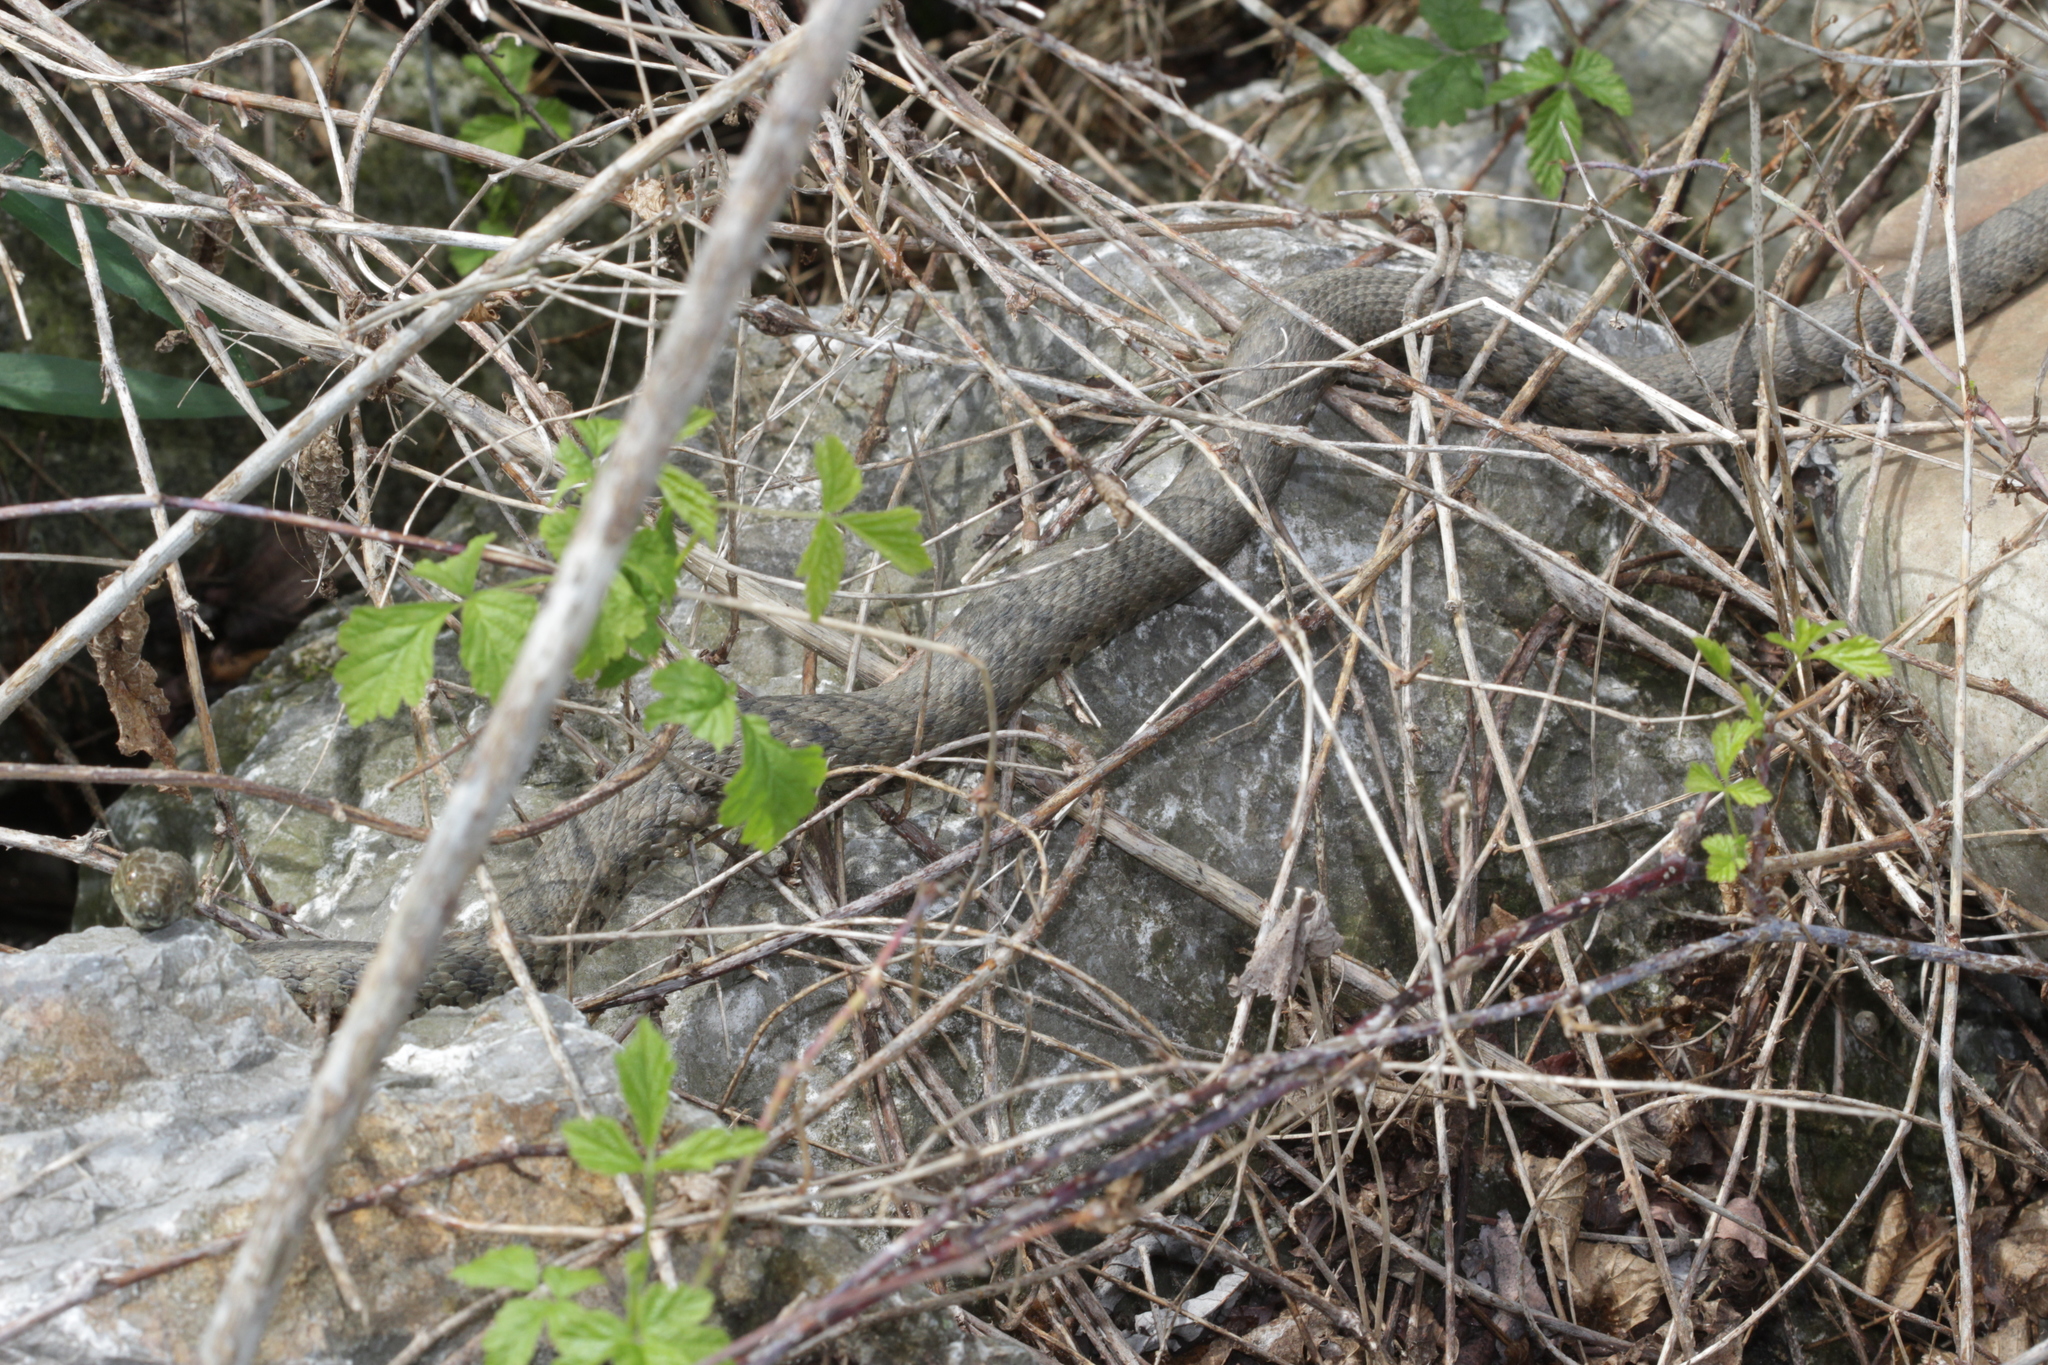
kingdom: Animalia
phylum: Chordata
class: Squamata
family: Colubridae
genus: Natrix
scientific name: Natrix tessellata
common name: Dice snake
